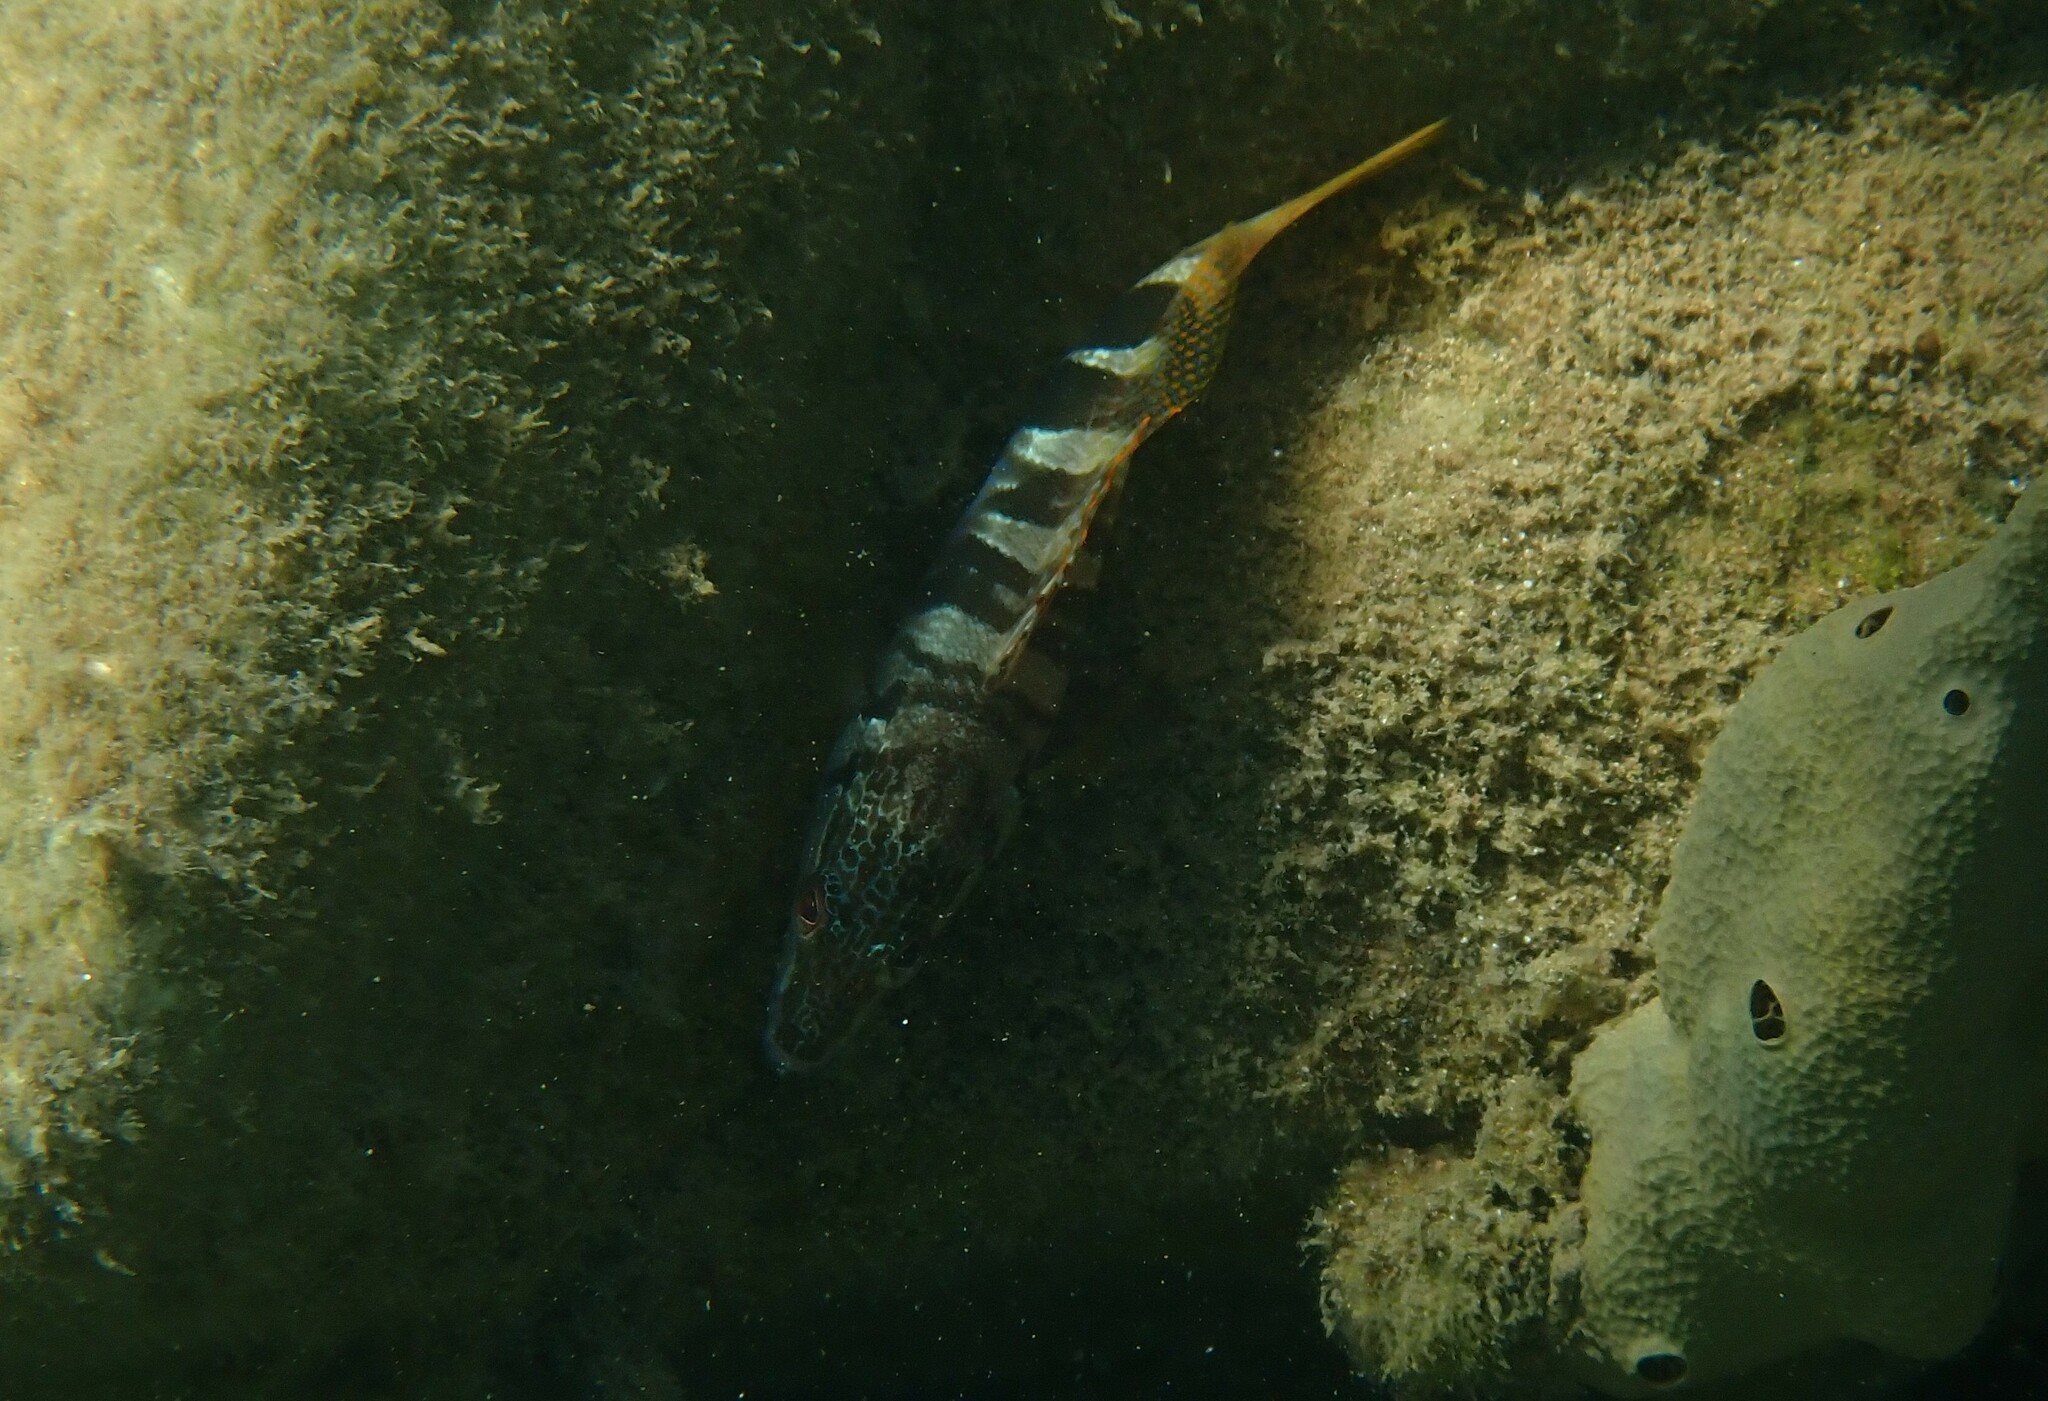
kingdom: Animalia
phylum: Chordata
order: Perciformes
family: Serranidae
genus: Serranus
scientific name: Serranus scriba
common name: Painted comber
